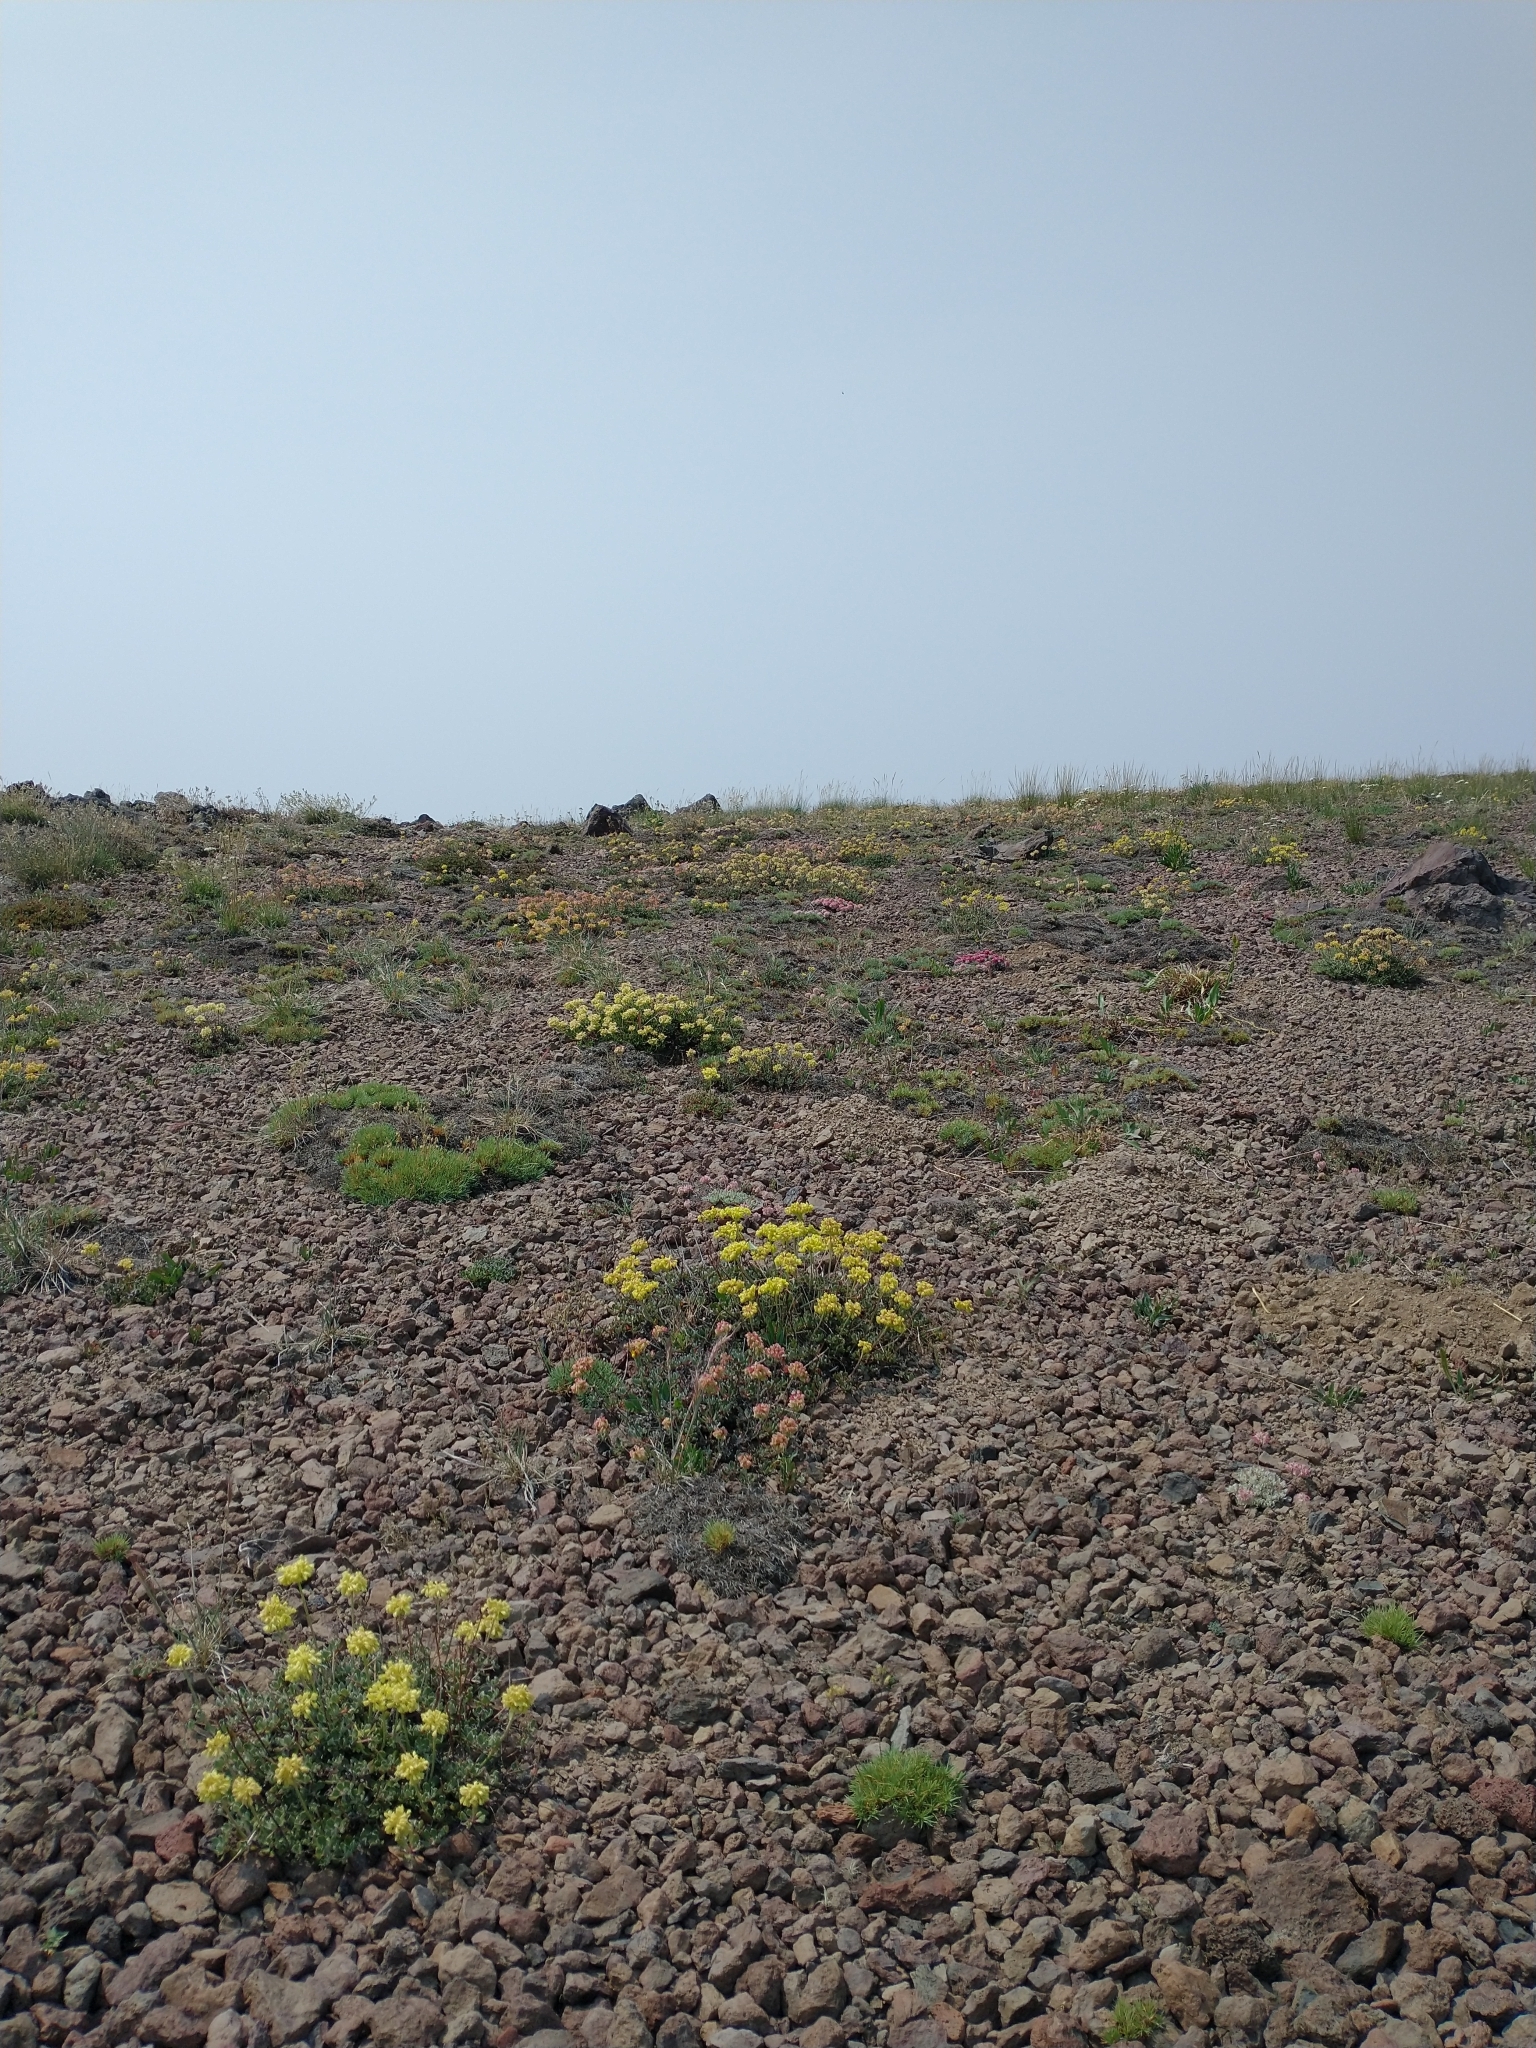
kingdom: Plantae
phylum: Tracheophyta
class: Magnoliopsida
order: Caryophyllales
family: Polygonaceae
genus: Eriogonum
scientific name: Eriogonum ovalifolium
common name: Cushion buckwheat
